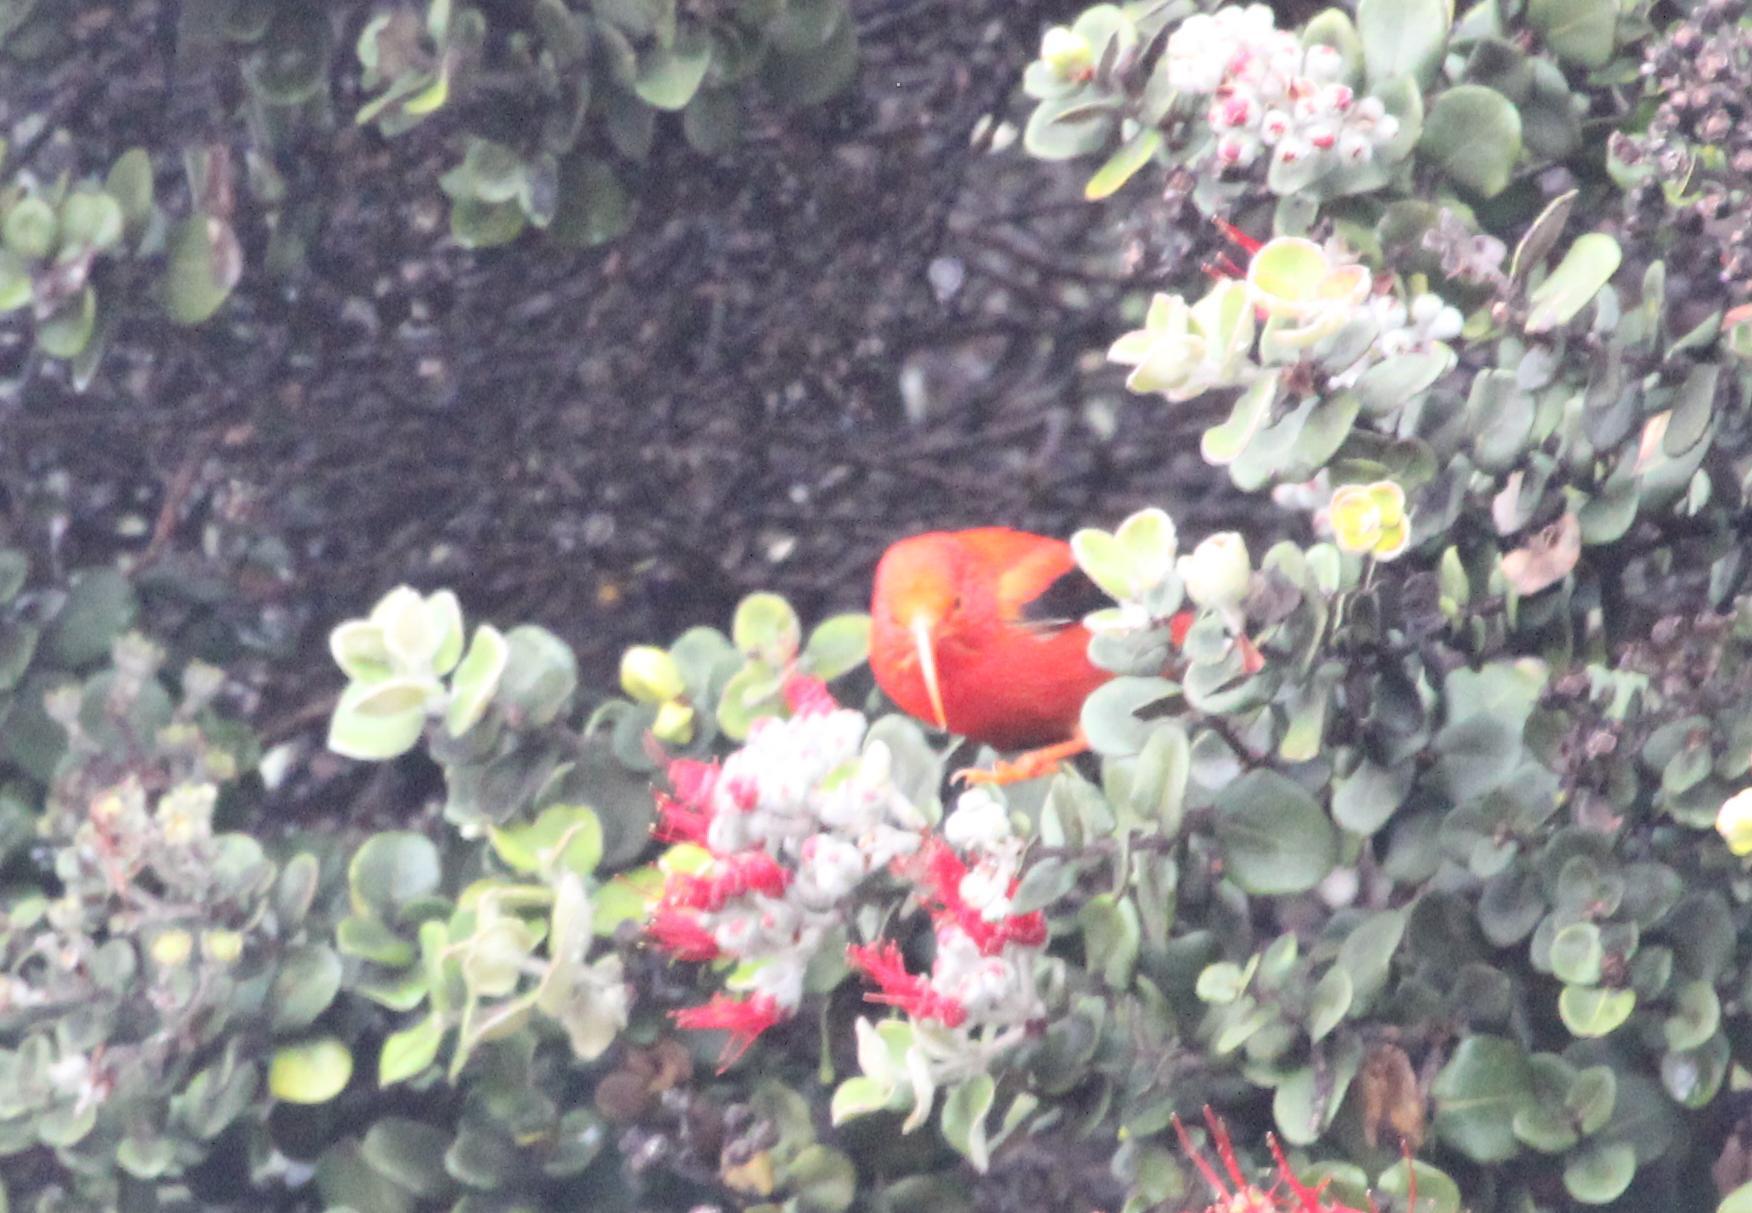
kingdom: Animalia
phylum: Chordata
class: Aves
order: Passeriformes
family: Fringillidae
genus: Vestiaria
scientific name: Vestiaria coccinea
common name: Iiwi
